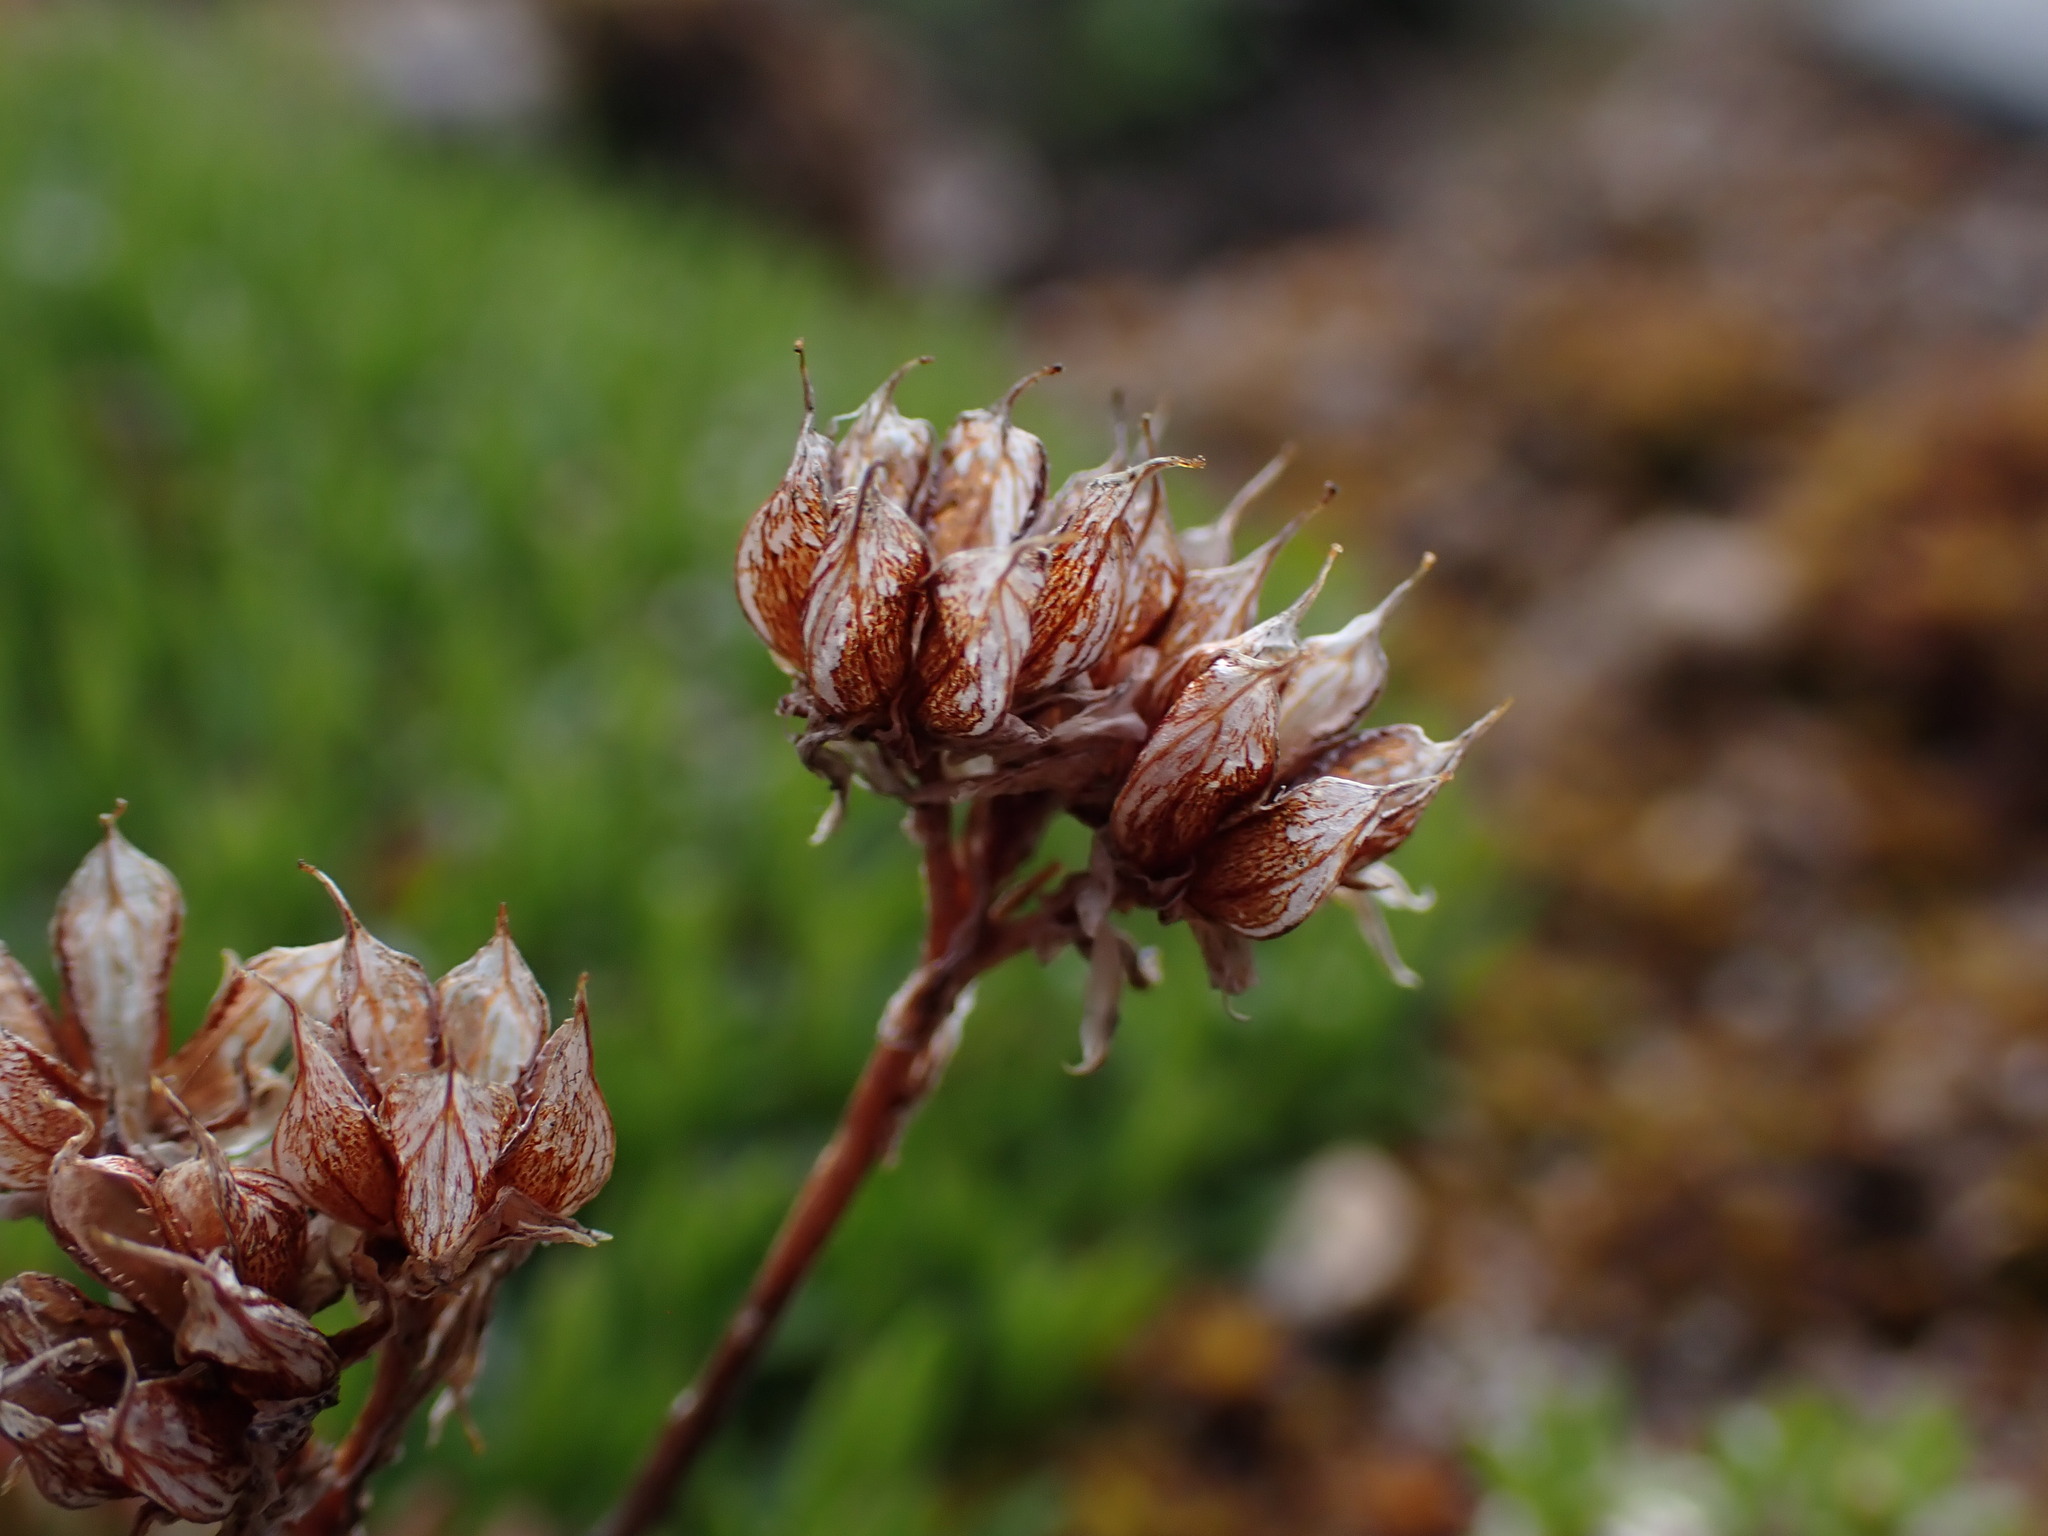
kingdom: Plantae
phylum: Tracheophyta
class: Magnoliopsida
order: Saxifragales
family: Crassulaceae
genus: Sedum
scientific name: Sedum lanceolatum
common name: Common stonecrop
